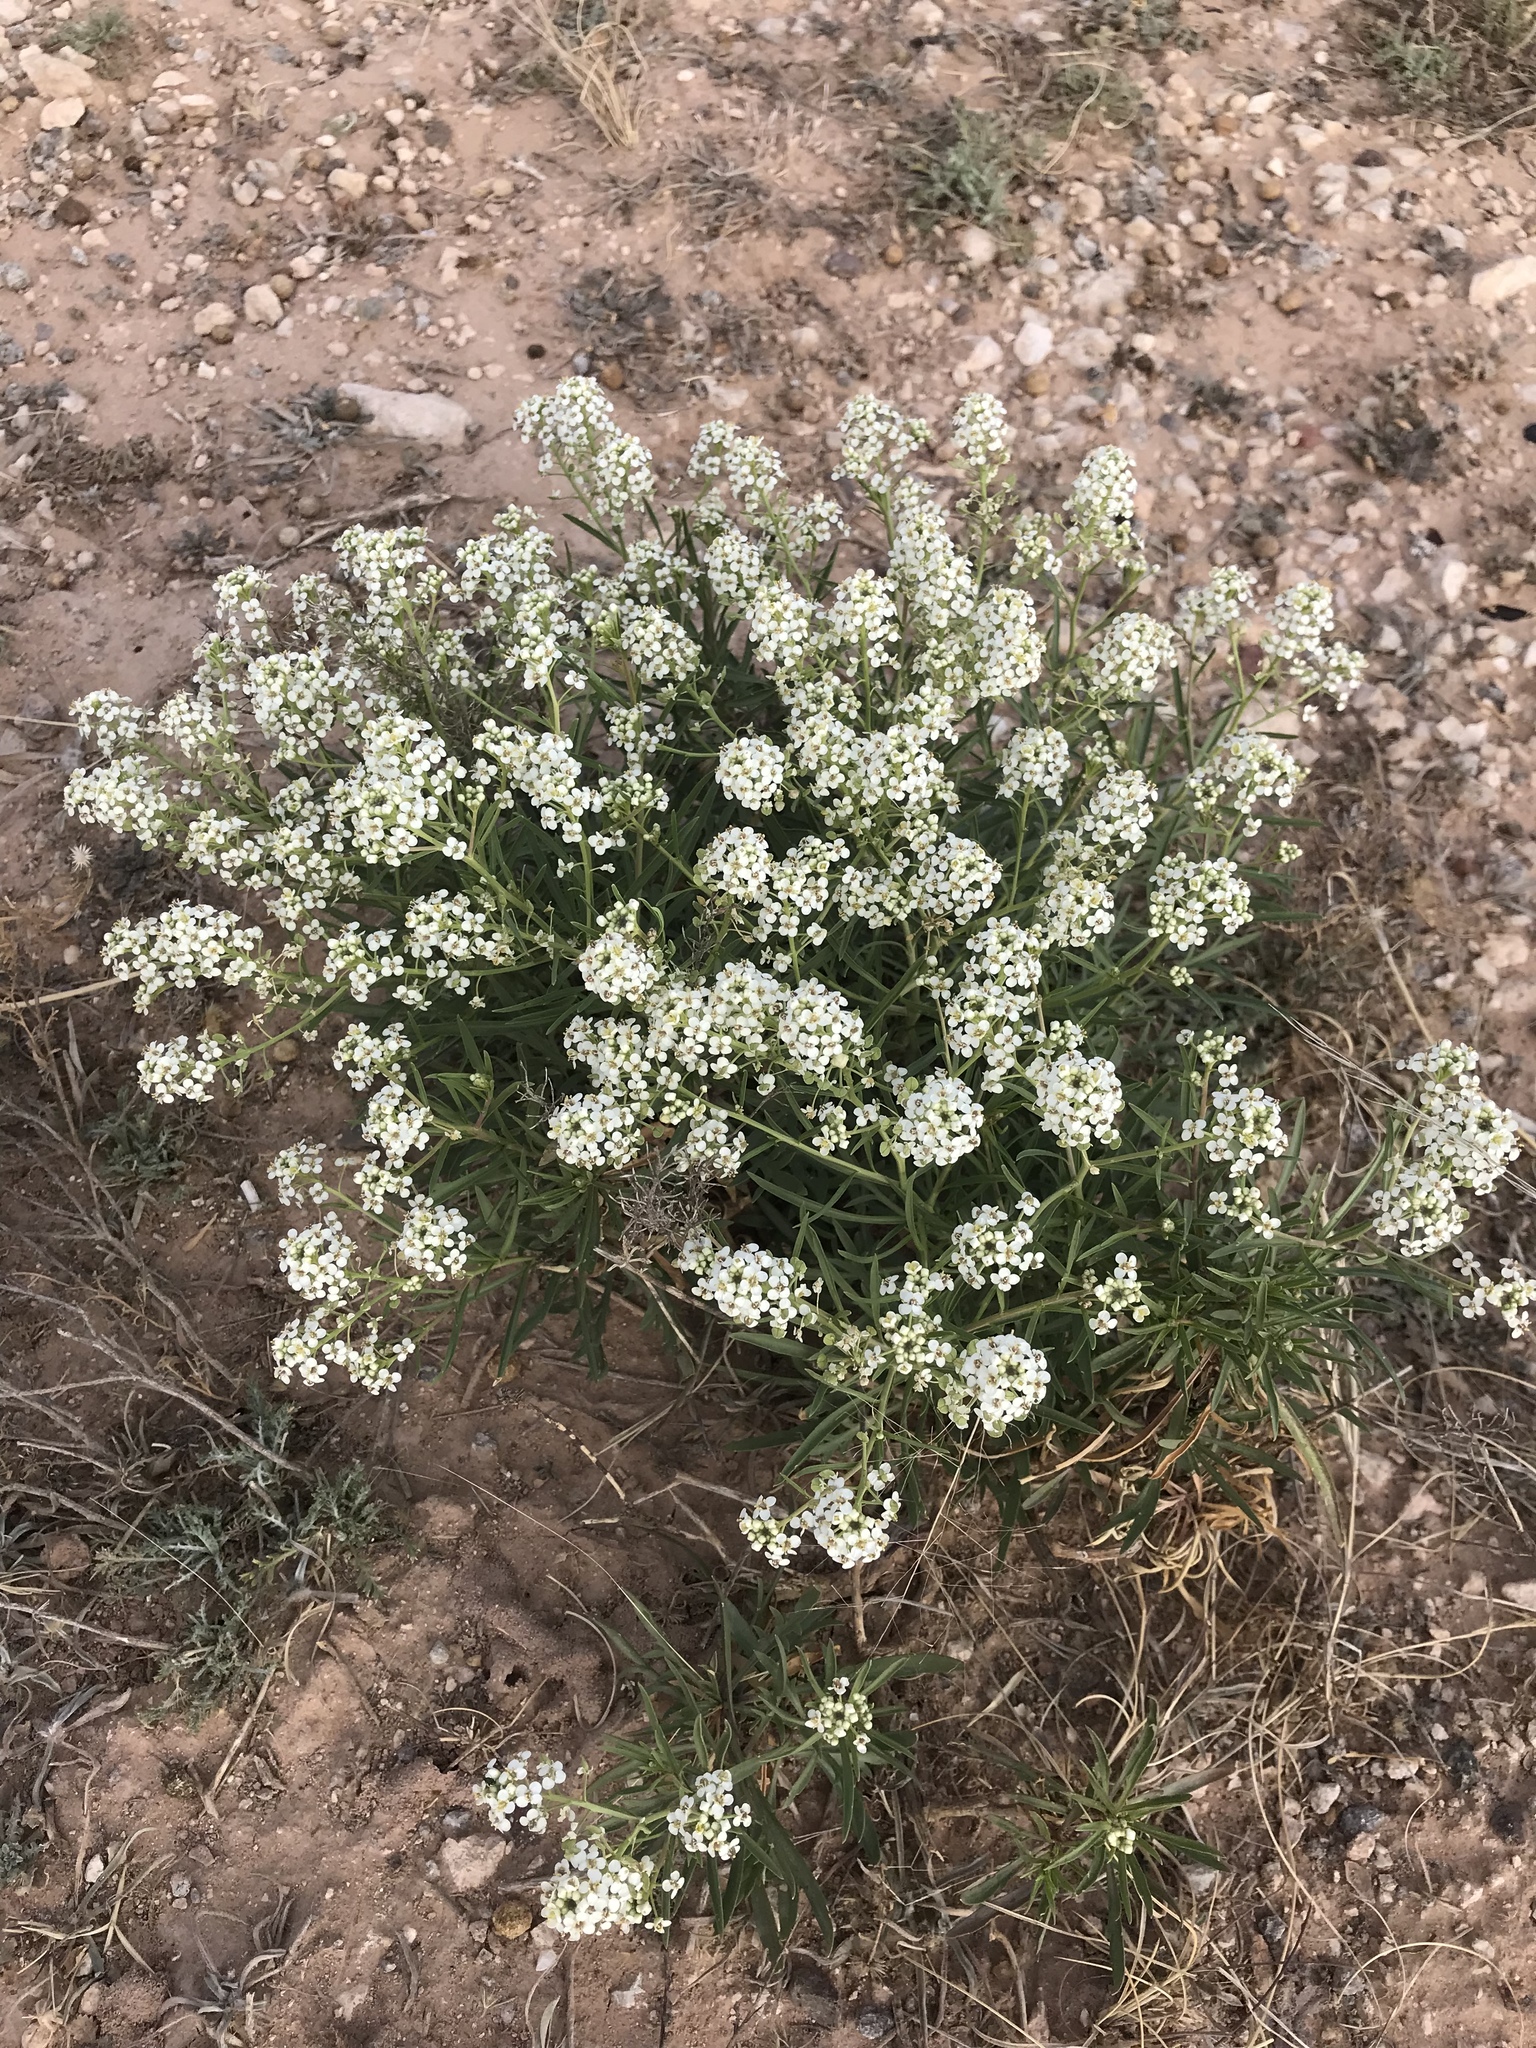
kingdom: Plantae
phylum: Tracheophyta
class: Magnoliopsida
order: Brassicales
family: Brassicaceae
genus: Lepidium
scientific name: Lepidium alyssoides
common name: Mesa pepperweed
